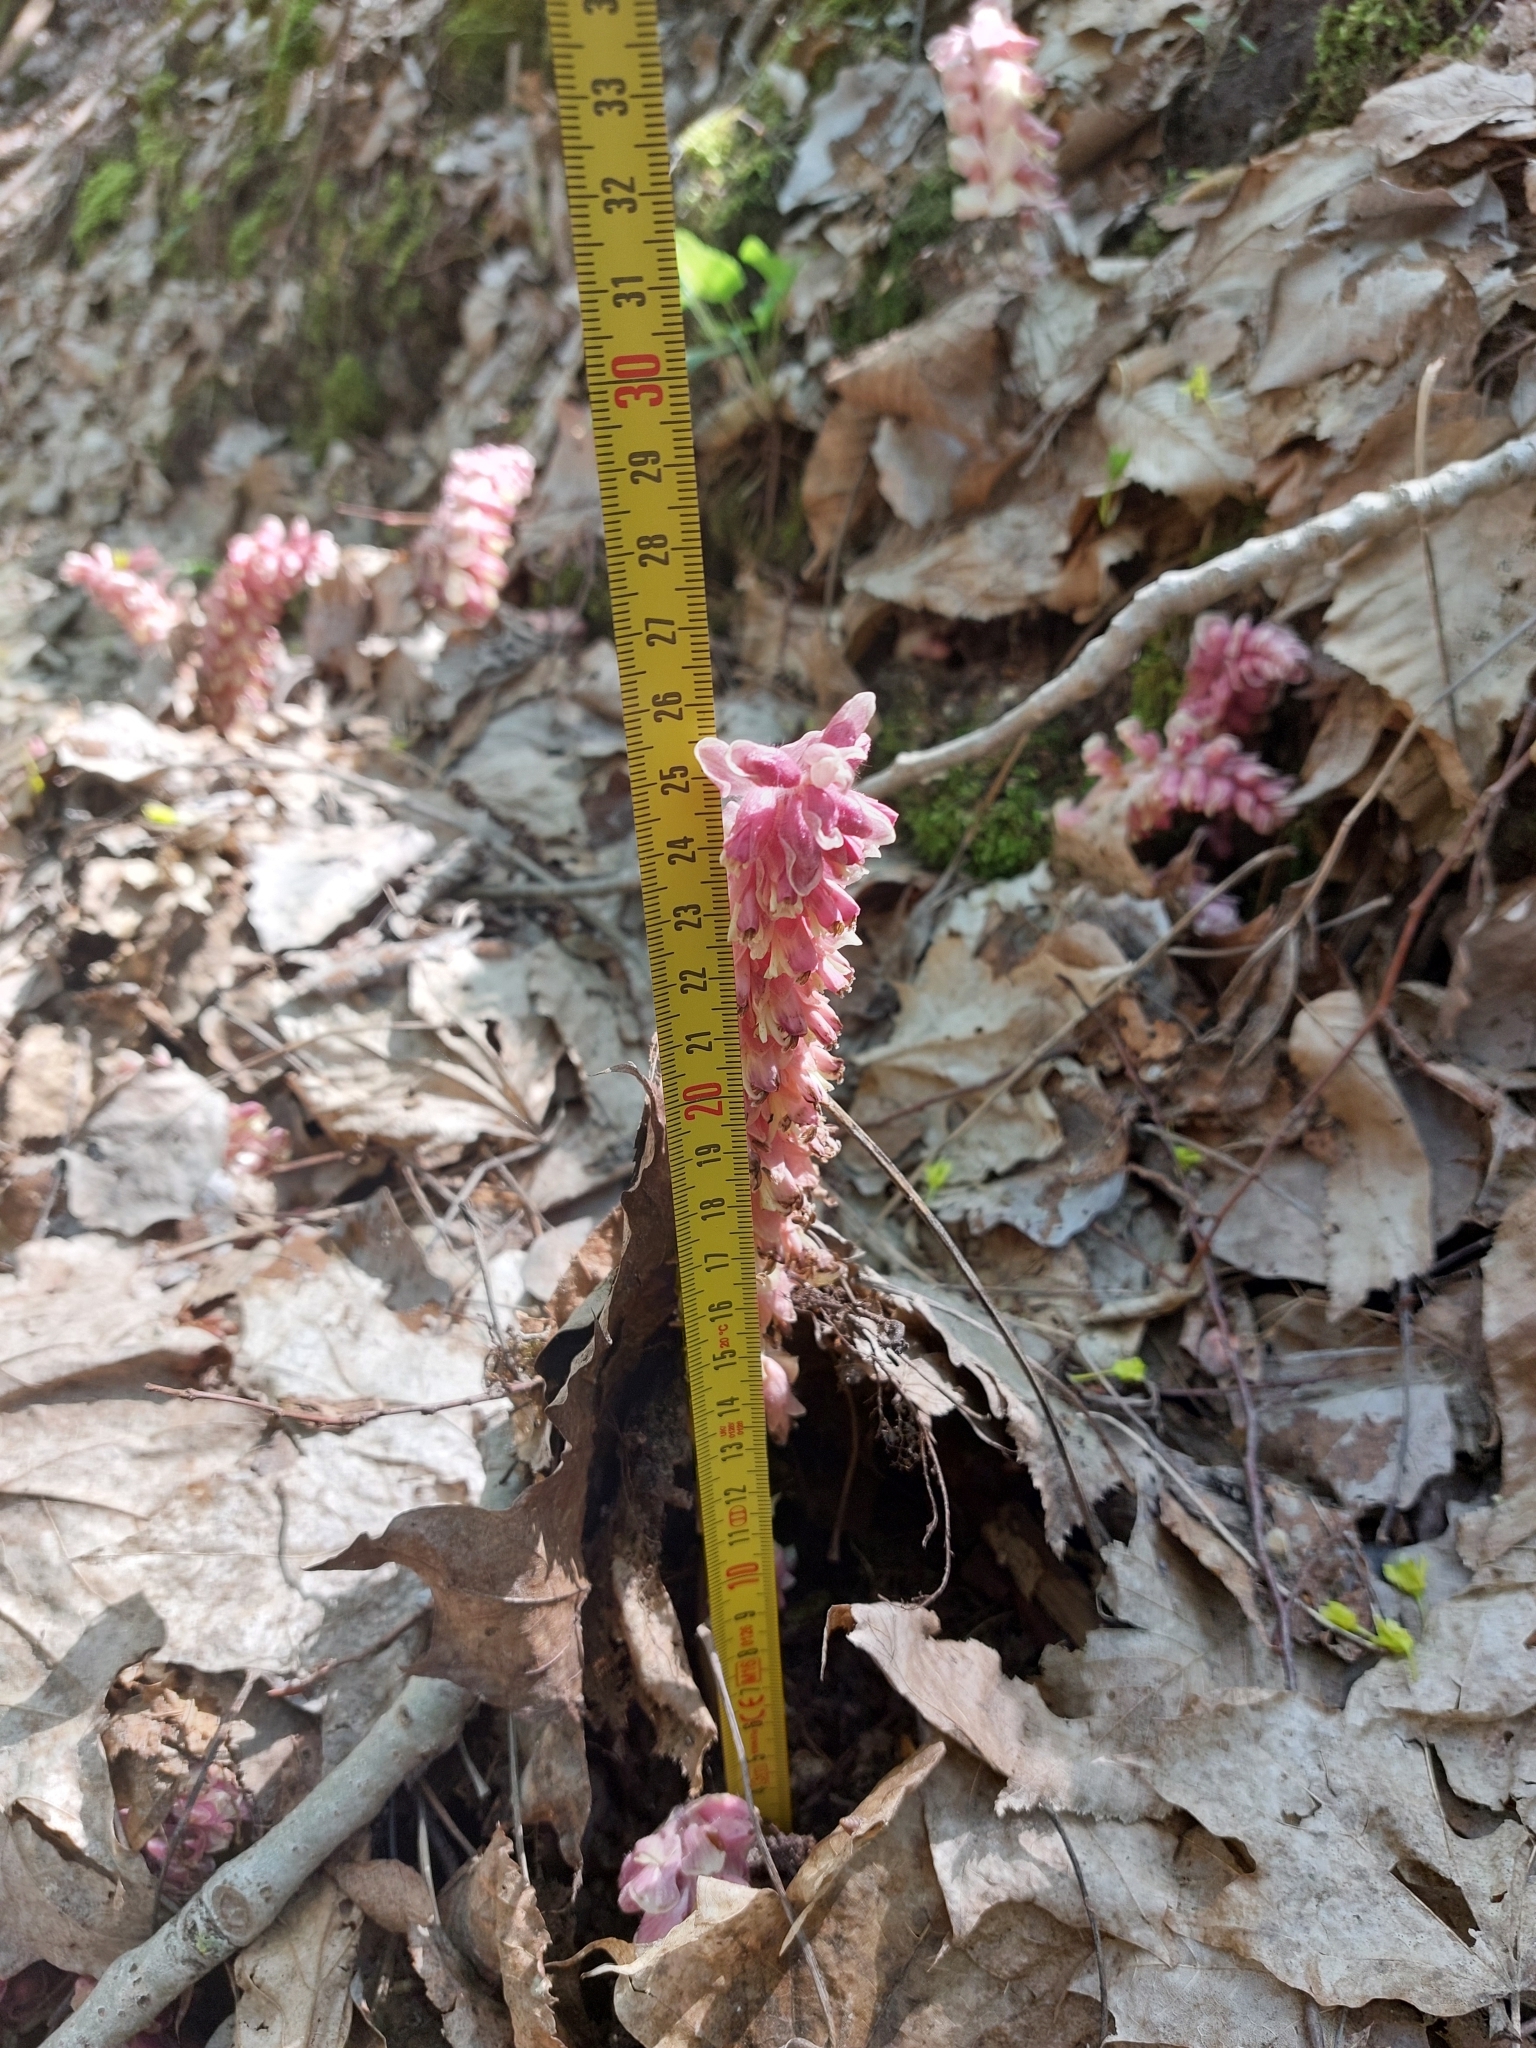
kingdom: Plantae
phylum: Tracheophyta
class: Magnoliopsida
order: Lamiales
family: Orobanchaceae
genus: Lathraea
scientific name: Lathraea squamaria
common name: Toothwort
